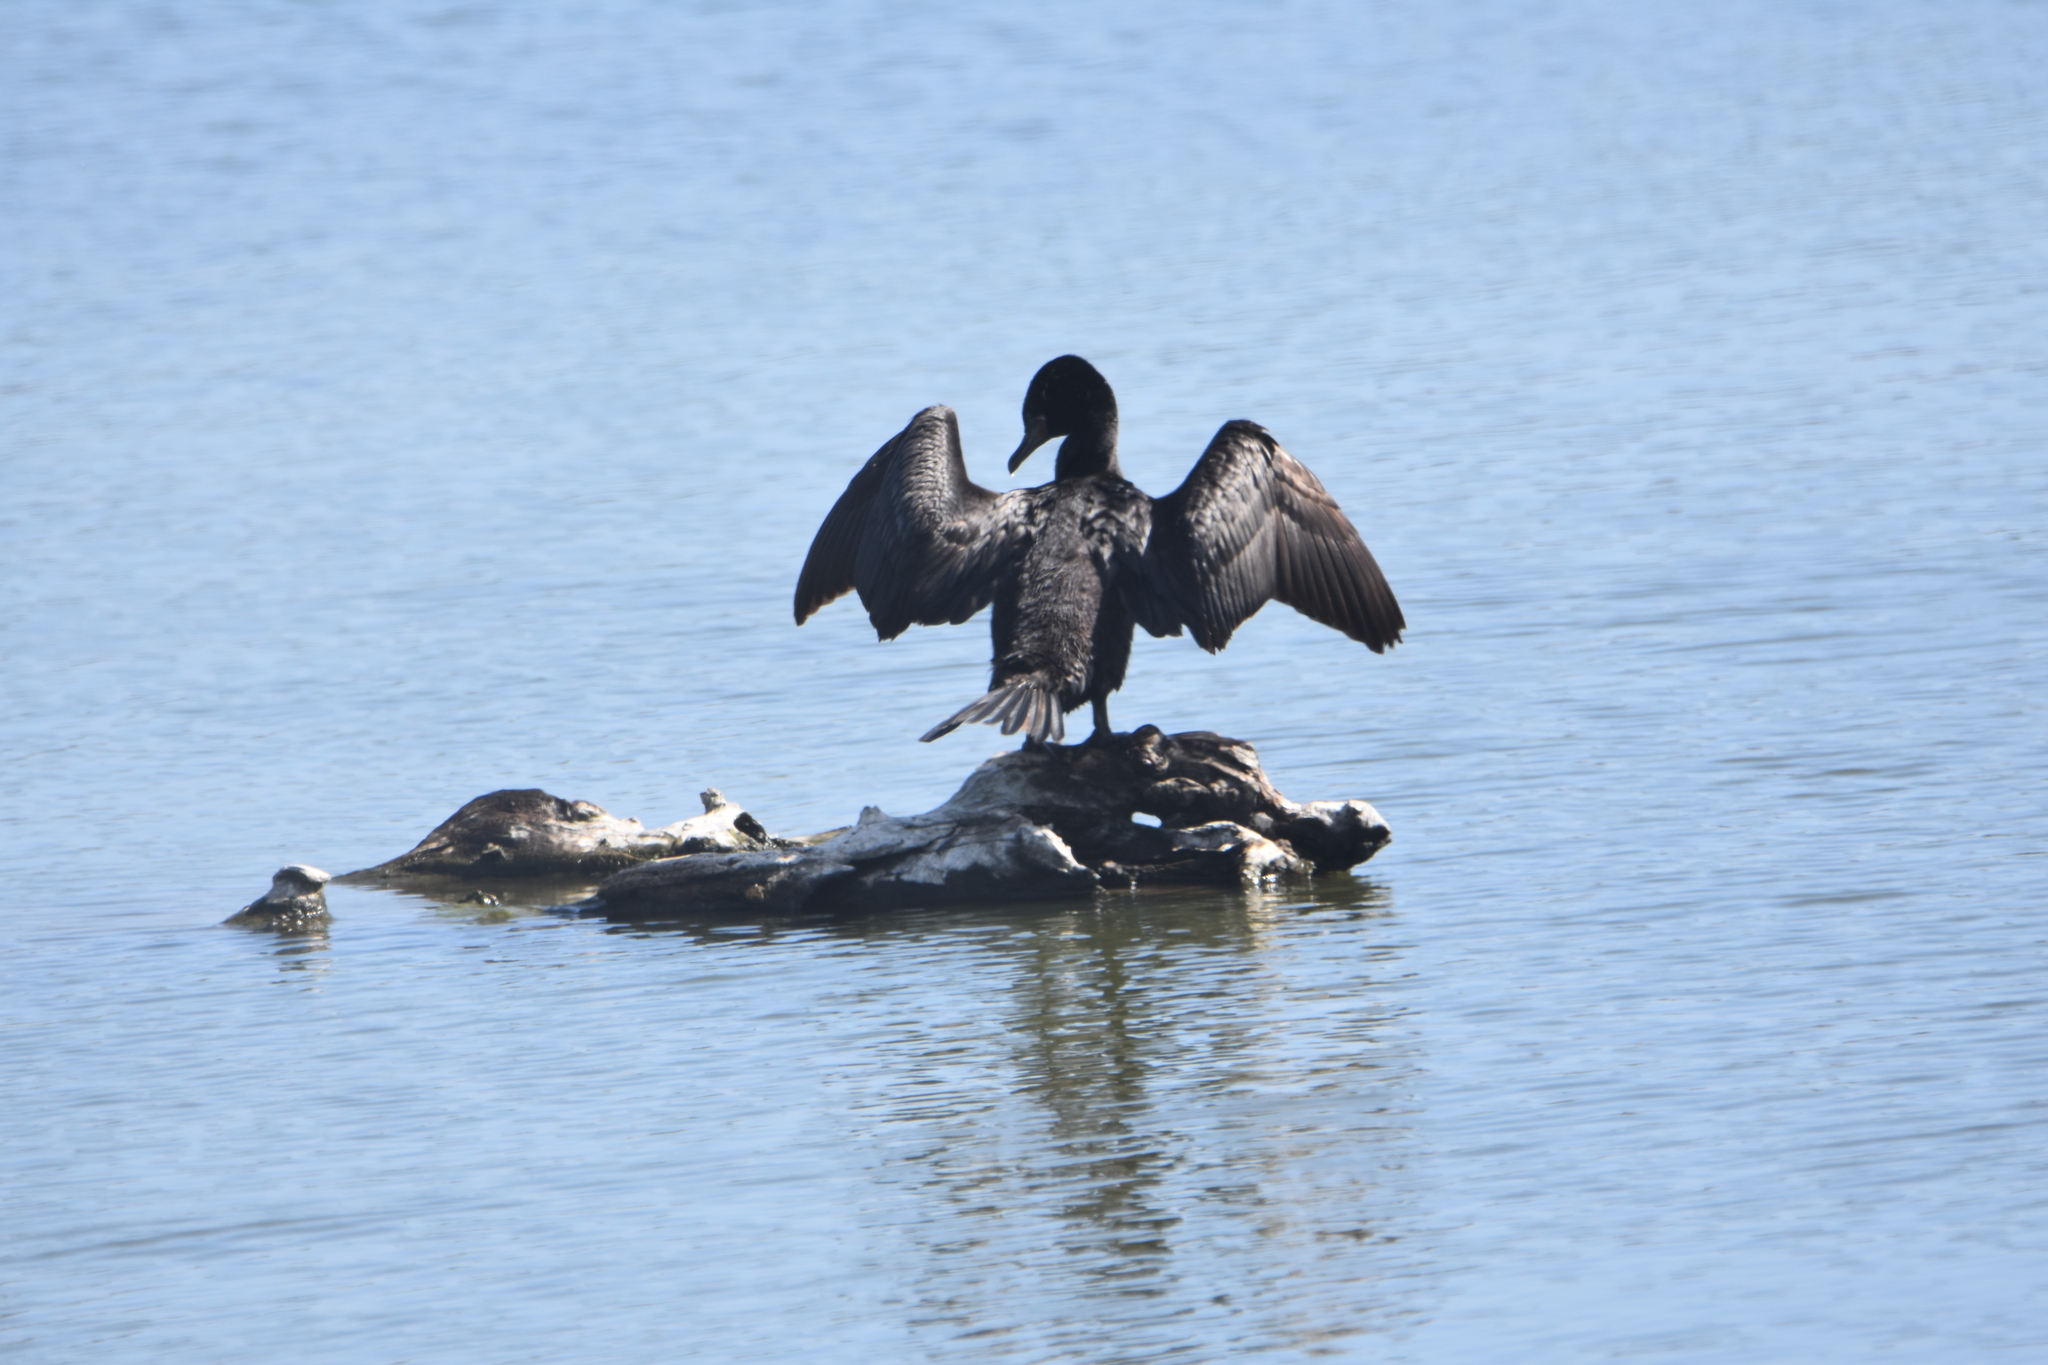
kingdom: Animalia
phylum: Chordata
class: Aves
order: Suliformes
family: Phalacrocoracidae
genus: Phalacrocorax
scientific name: Phalacrocorax brasilianus
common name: Neotropic cormorant
